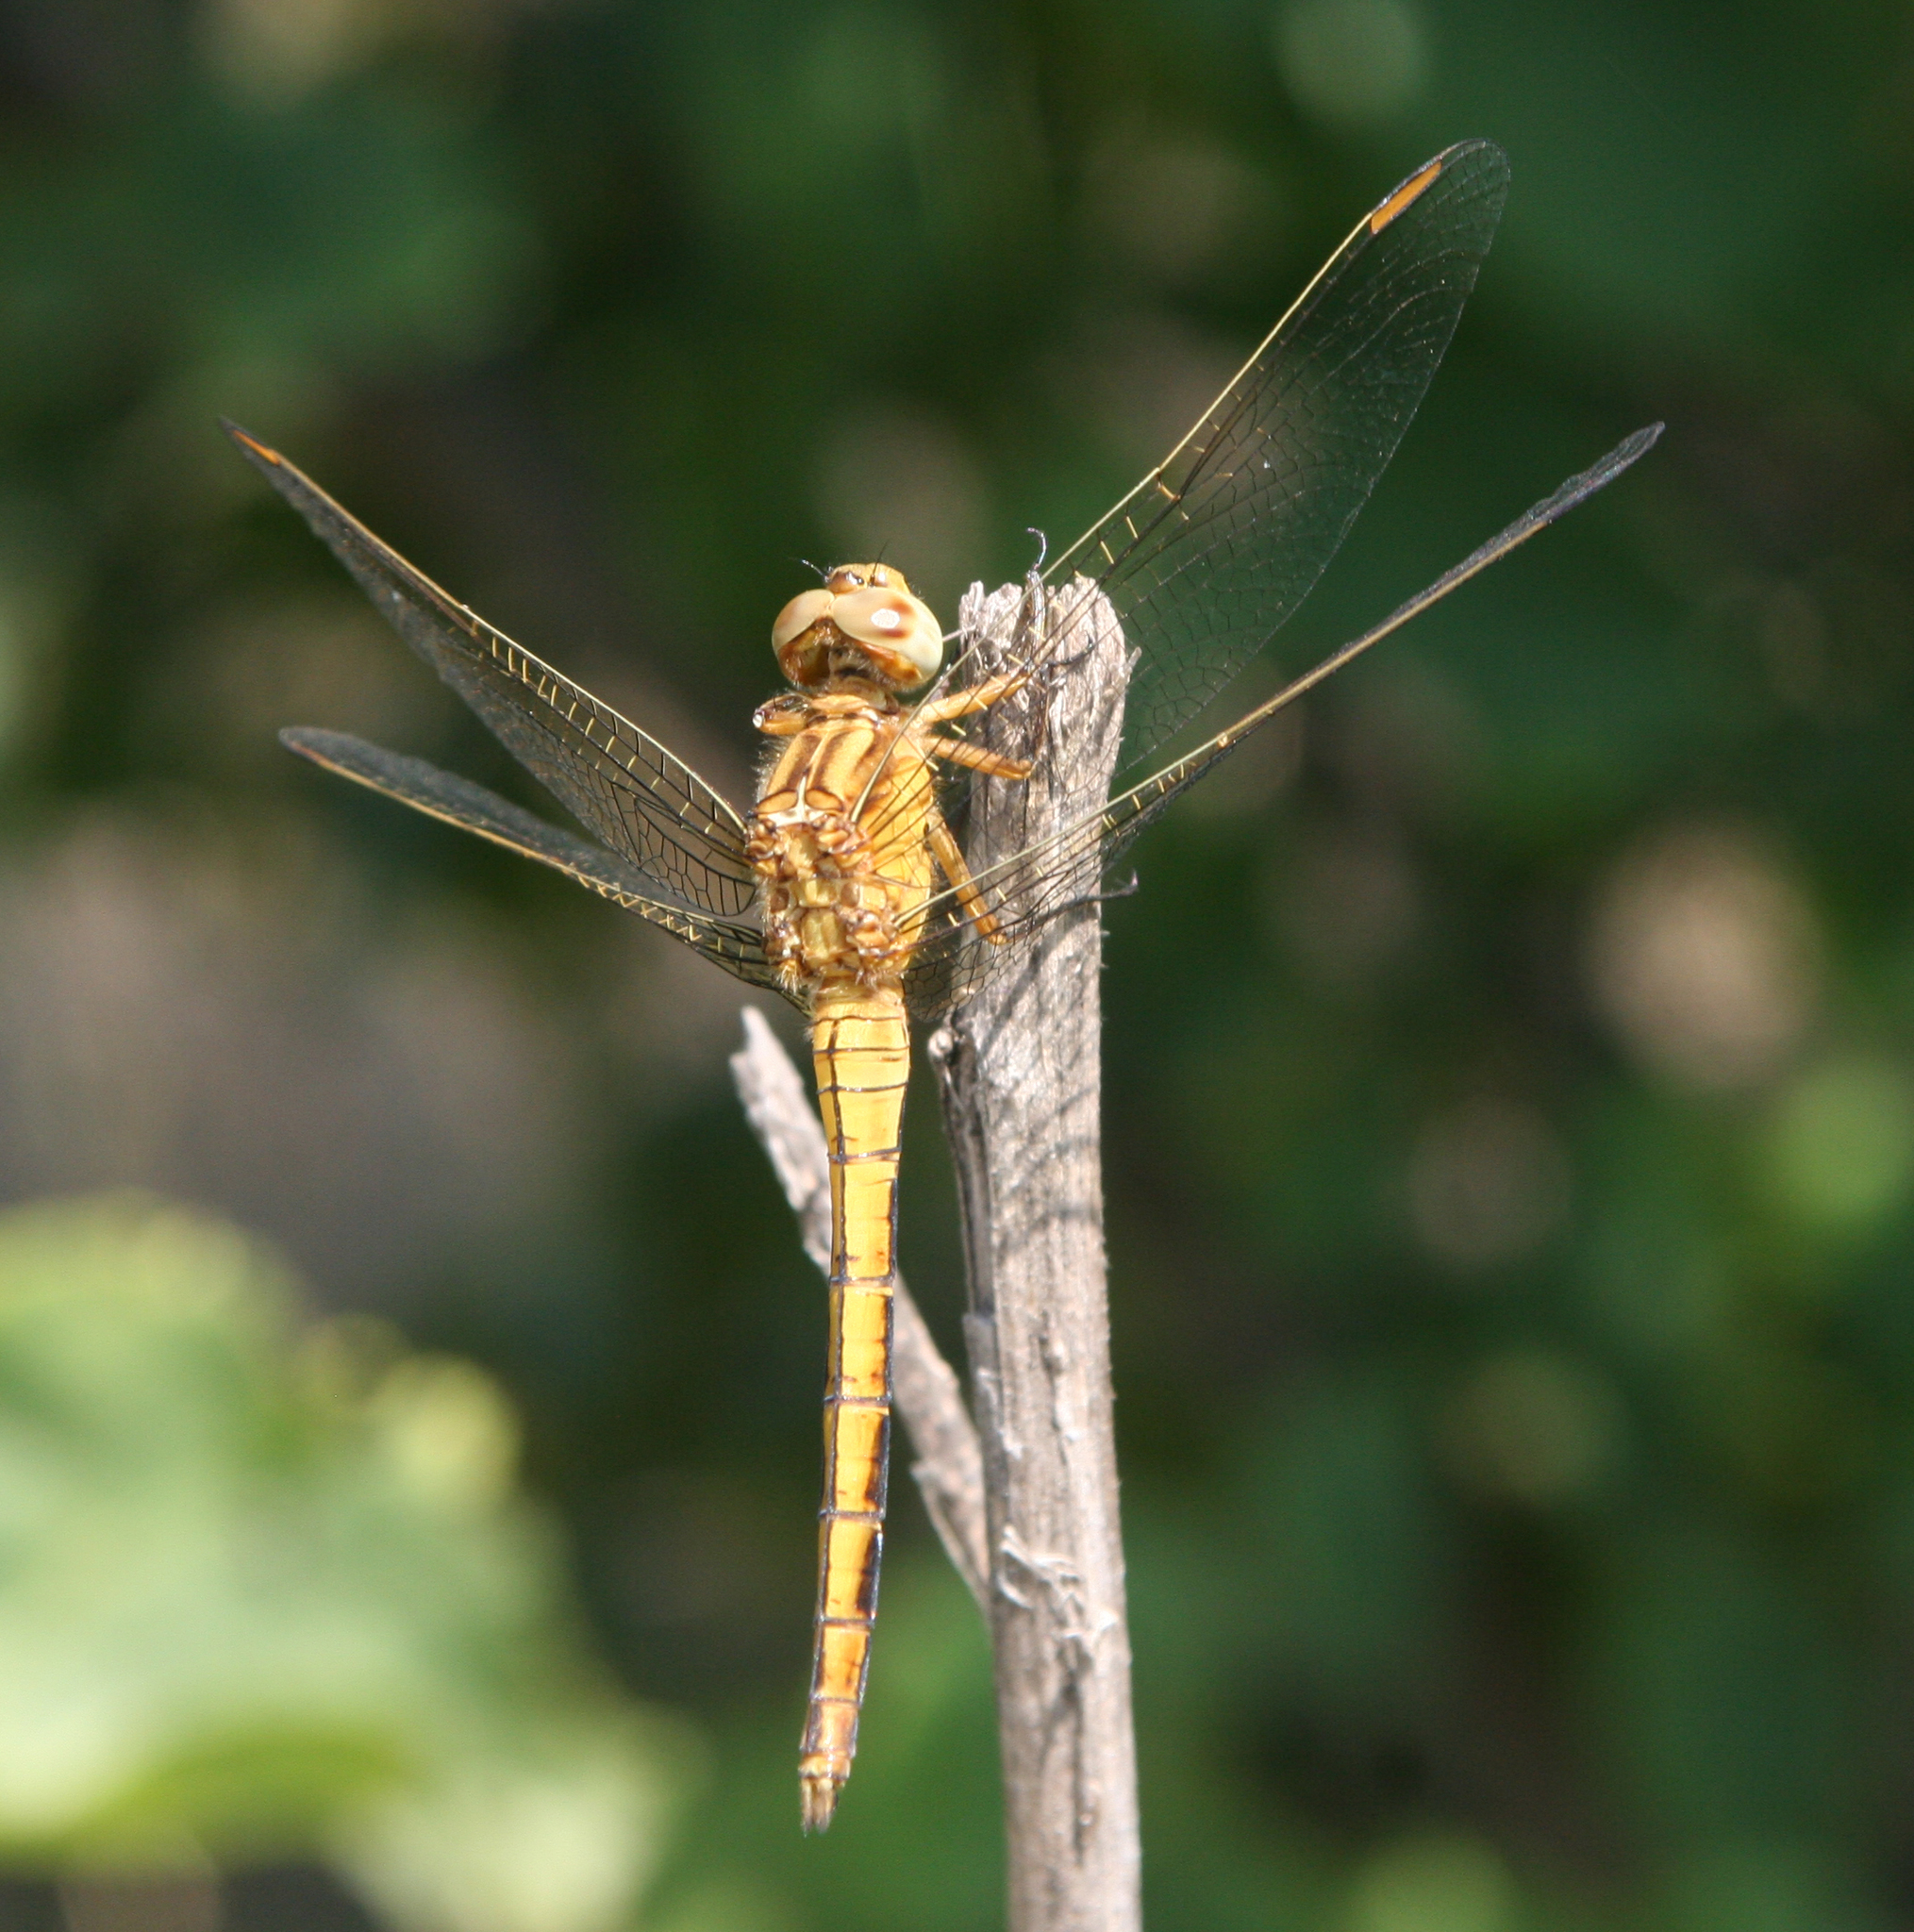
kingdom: Animalia
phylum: Arthropoda
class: Insecta
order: Odonata
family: Libellulidae
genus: Orthetrum
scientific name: Orthetrum coerulescens
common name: Keeled skimmer
